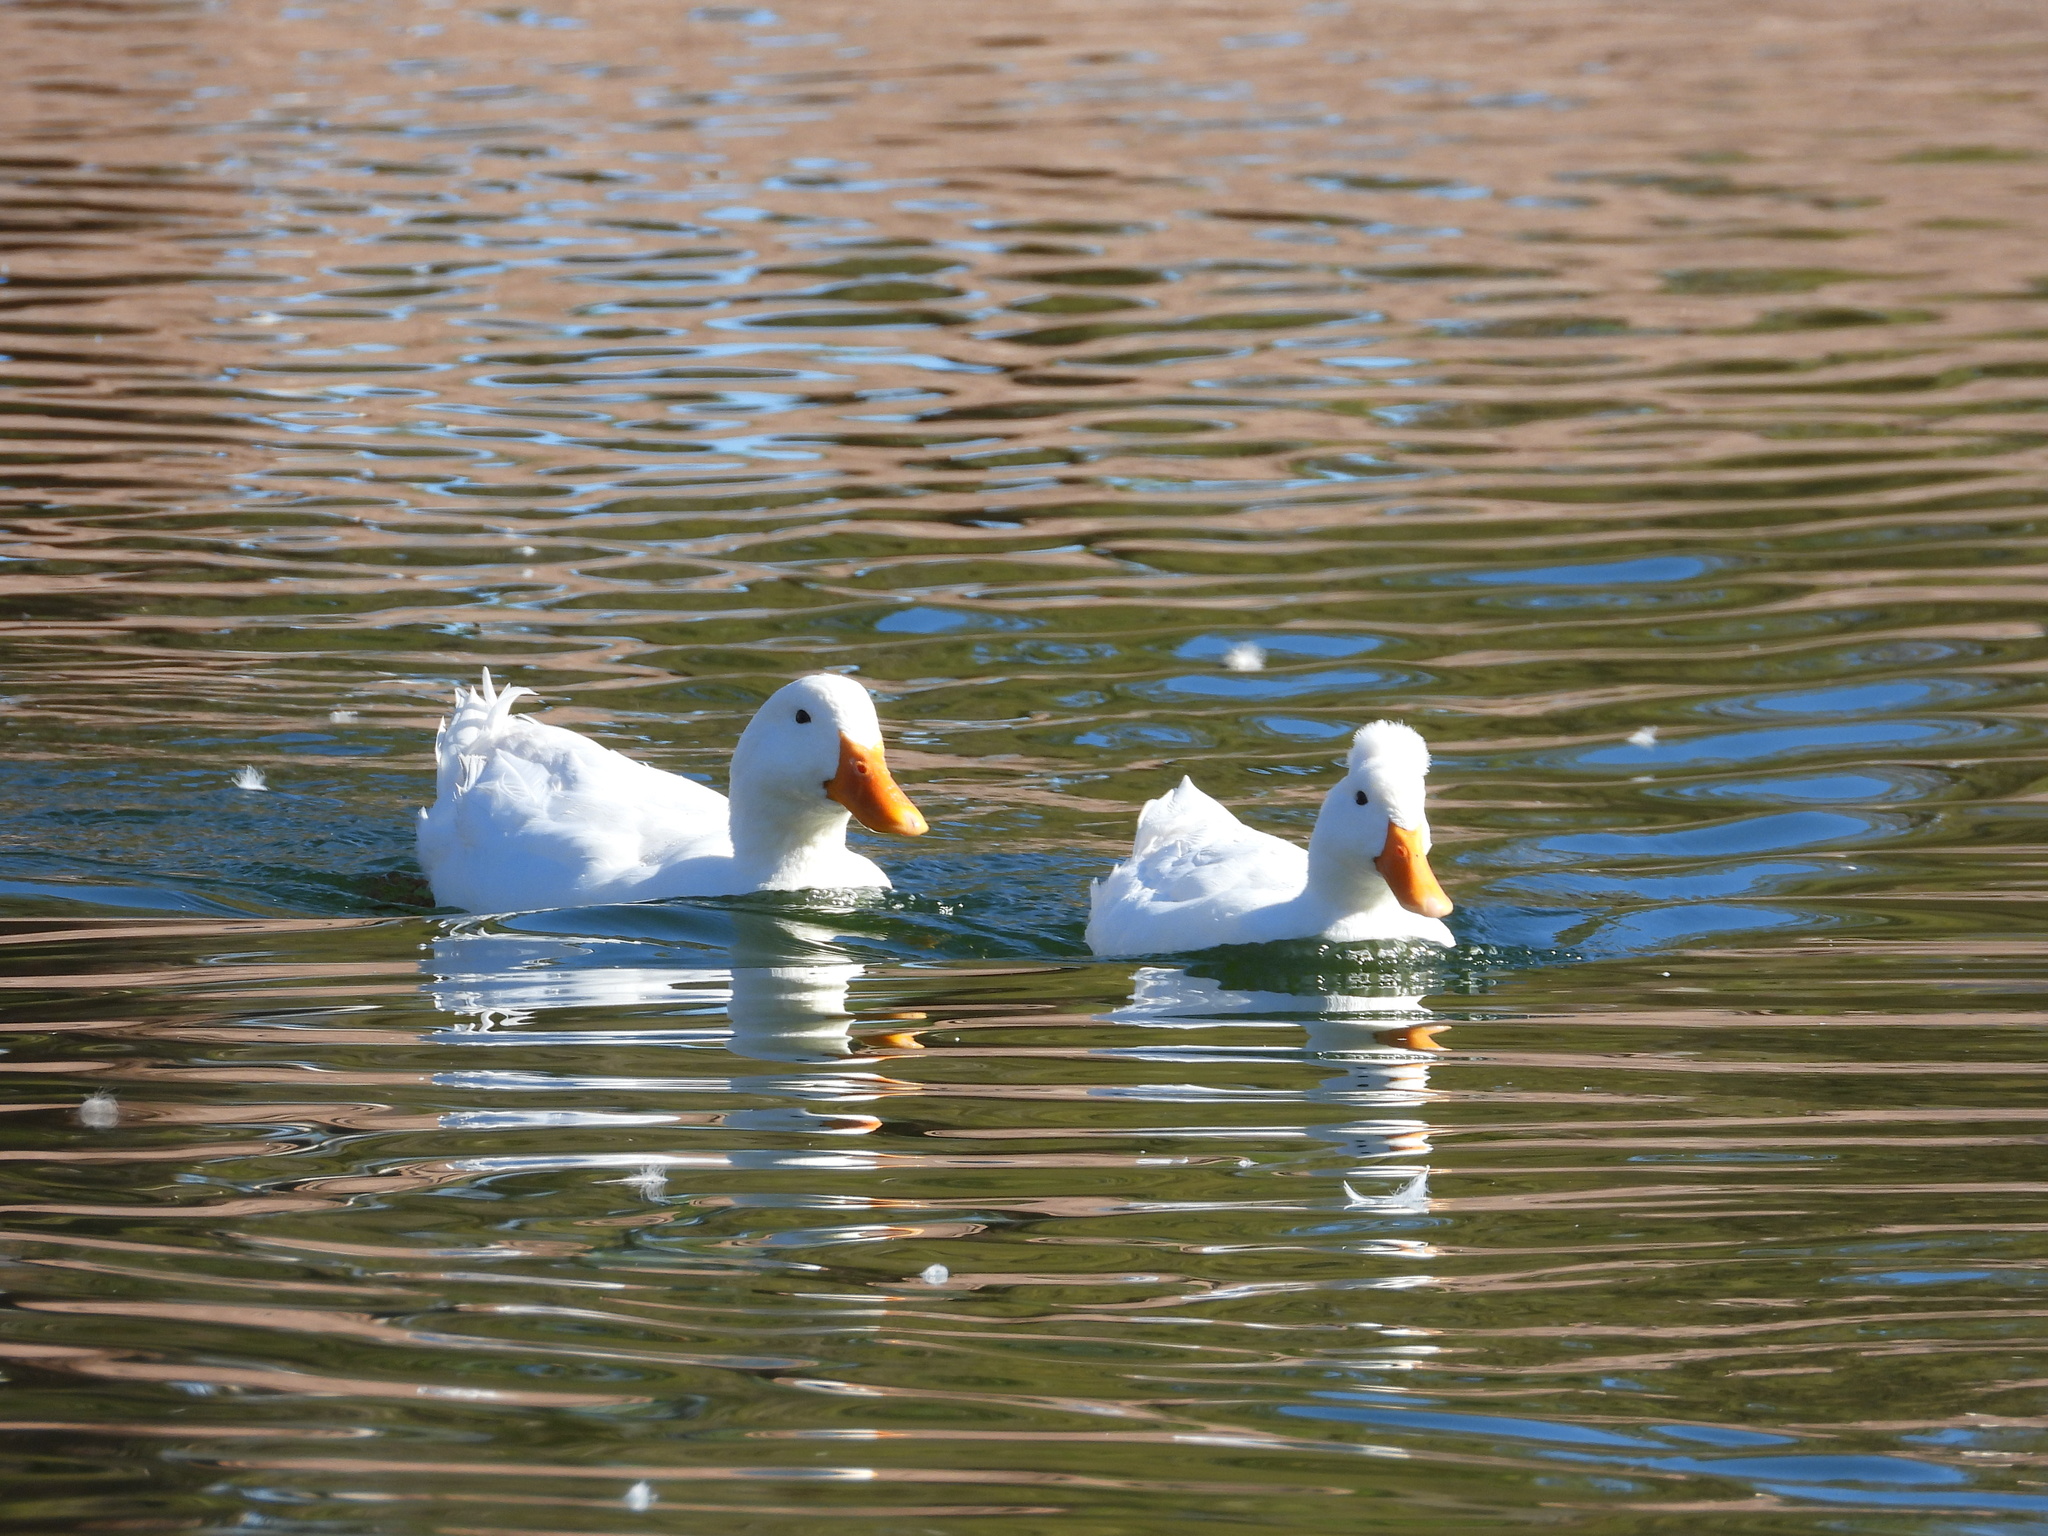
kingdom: Animalia
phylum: Chordata
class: Aves
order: Anseriformes
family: Anatidae
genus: Anas
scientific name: Anas platyrhynchos
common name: Mallard
